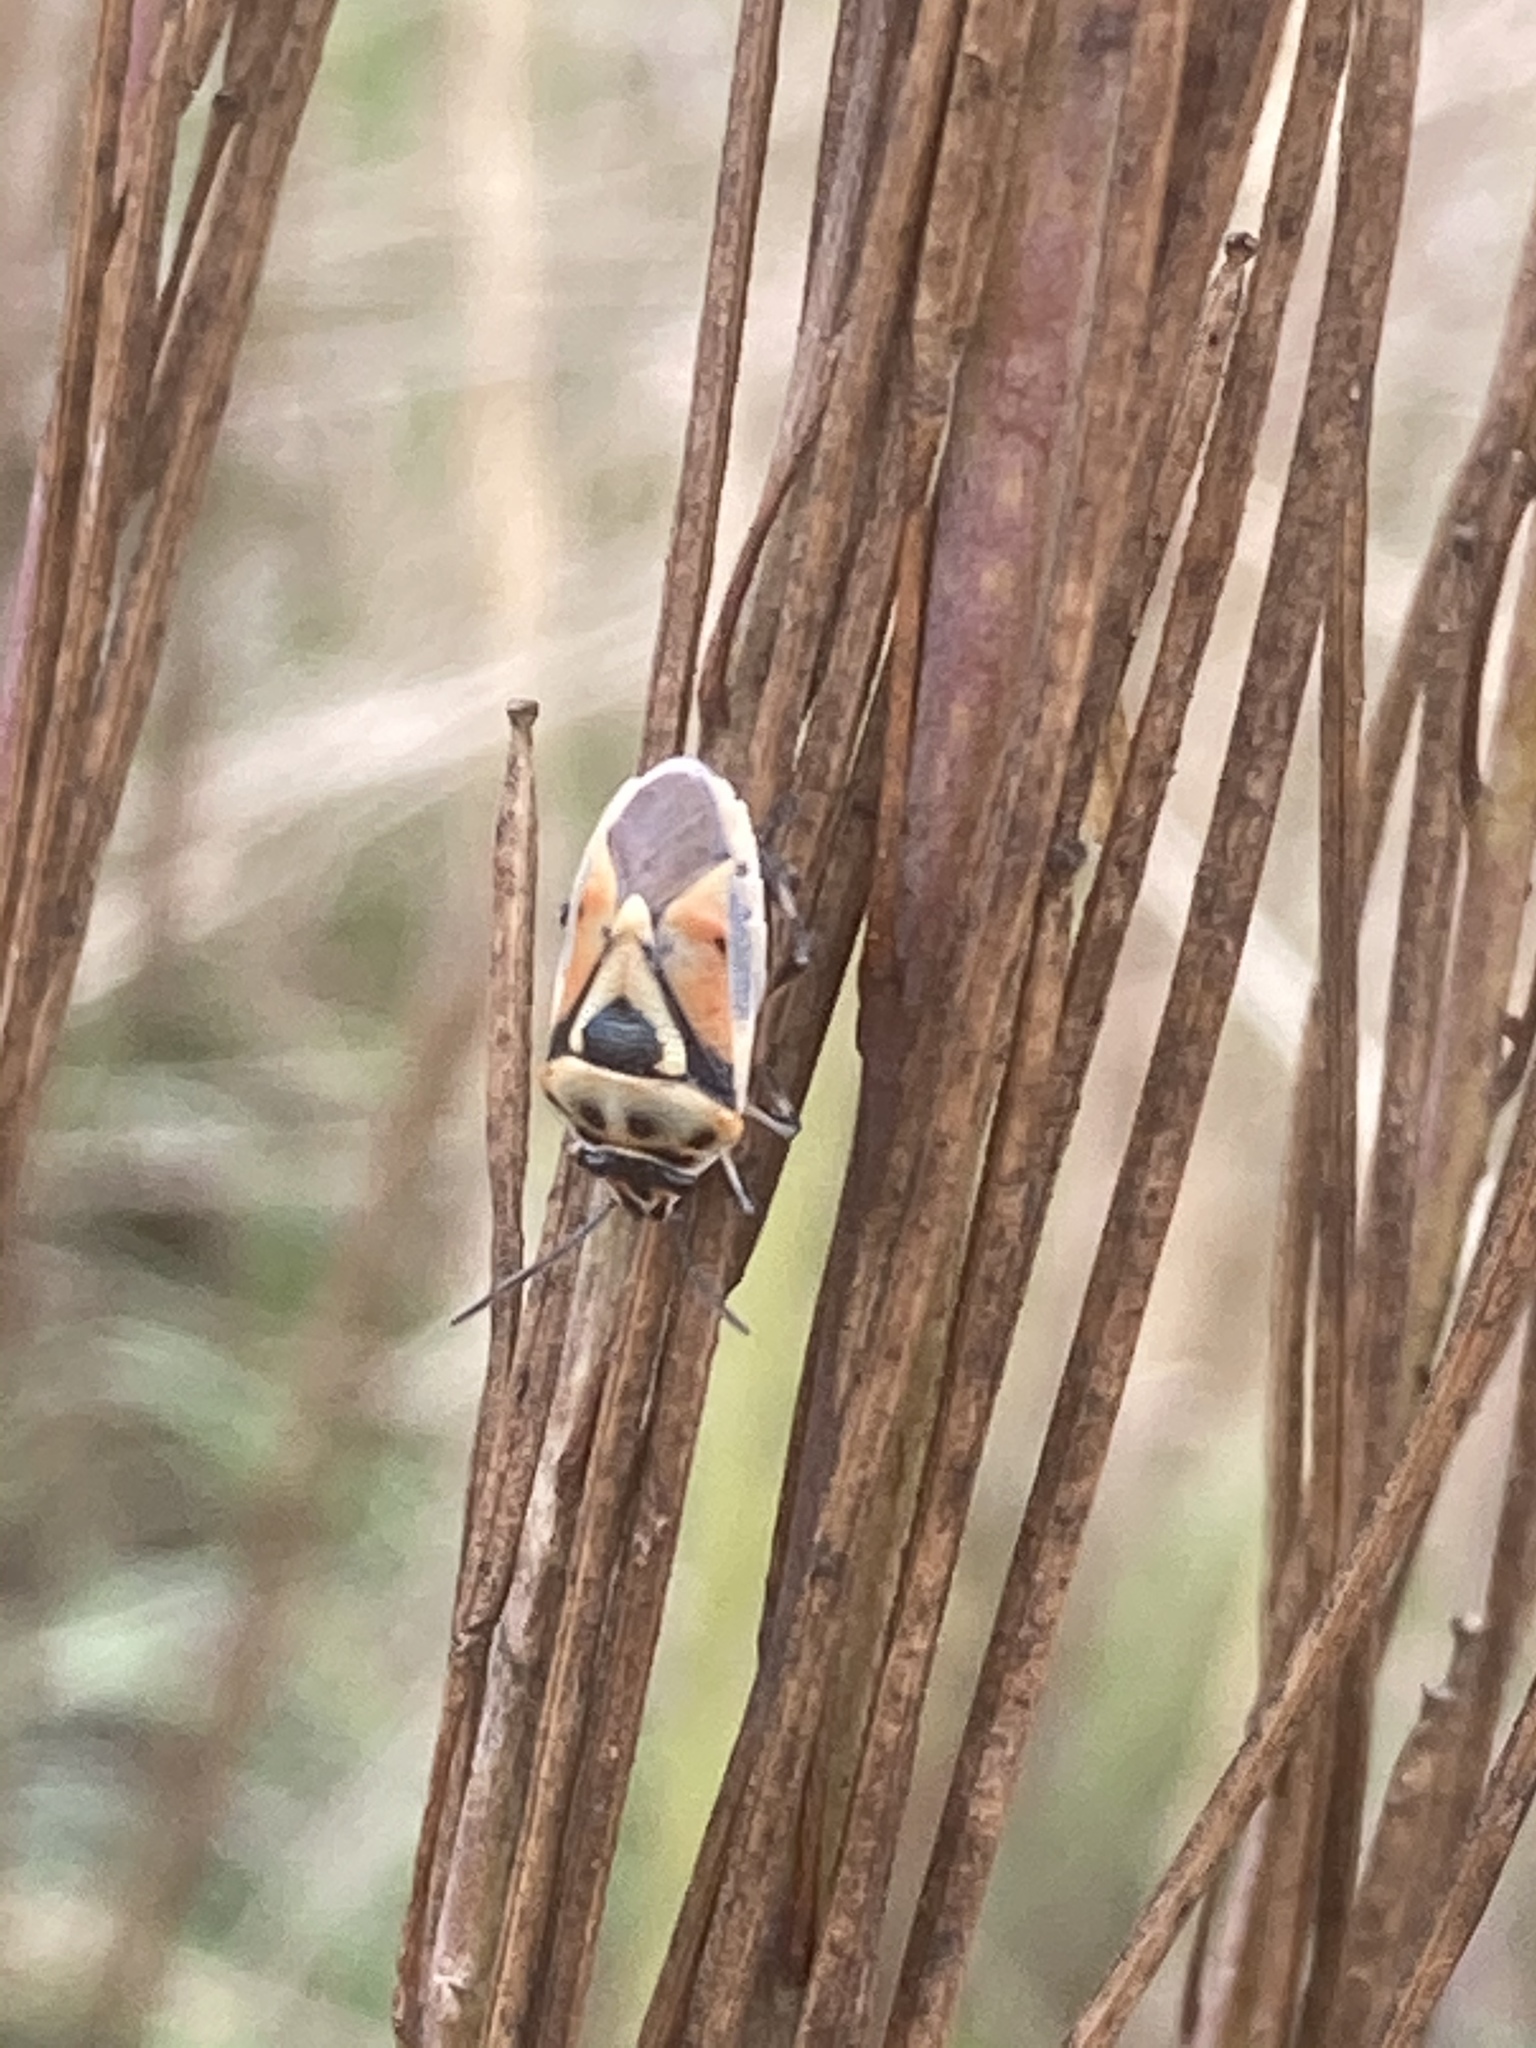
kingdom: Animalia
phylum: Arthropoda
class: Insecta
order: Hemiptera
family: Pentatomidae
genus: Eurydema
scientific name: Eurydema ornata
